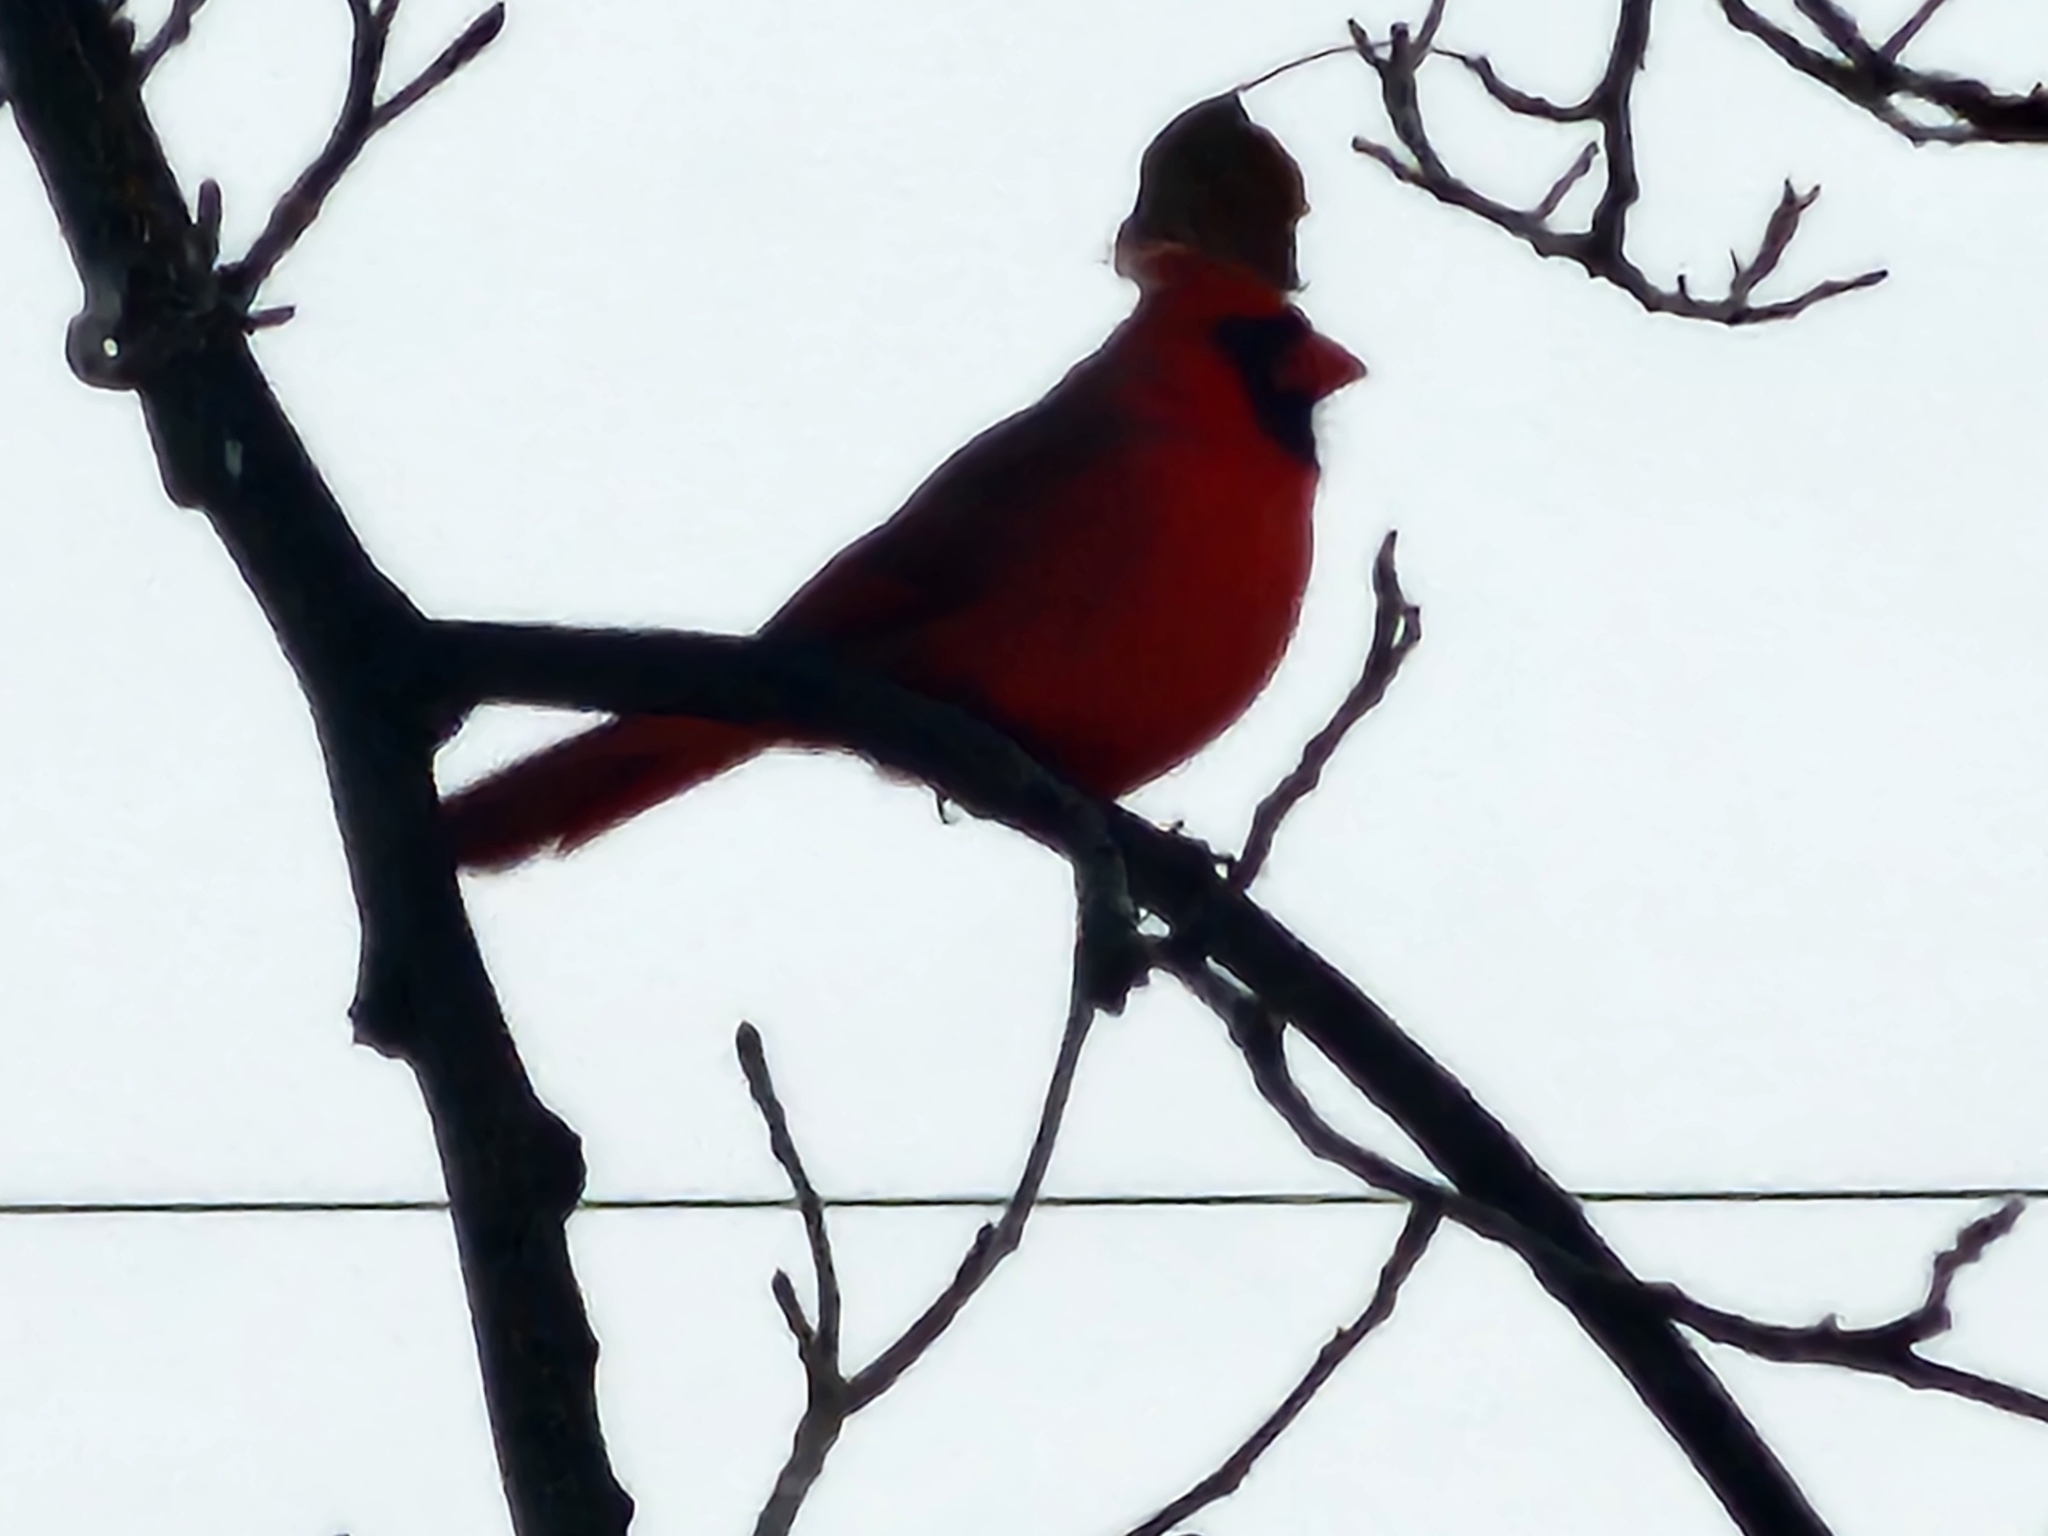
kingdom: Animalia
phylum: Chordata
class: Aves
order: Passeriformes
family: Cardinalidae
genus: Cardinalis
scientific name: Cardinalis cardinalis
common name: Northern cardinal
